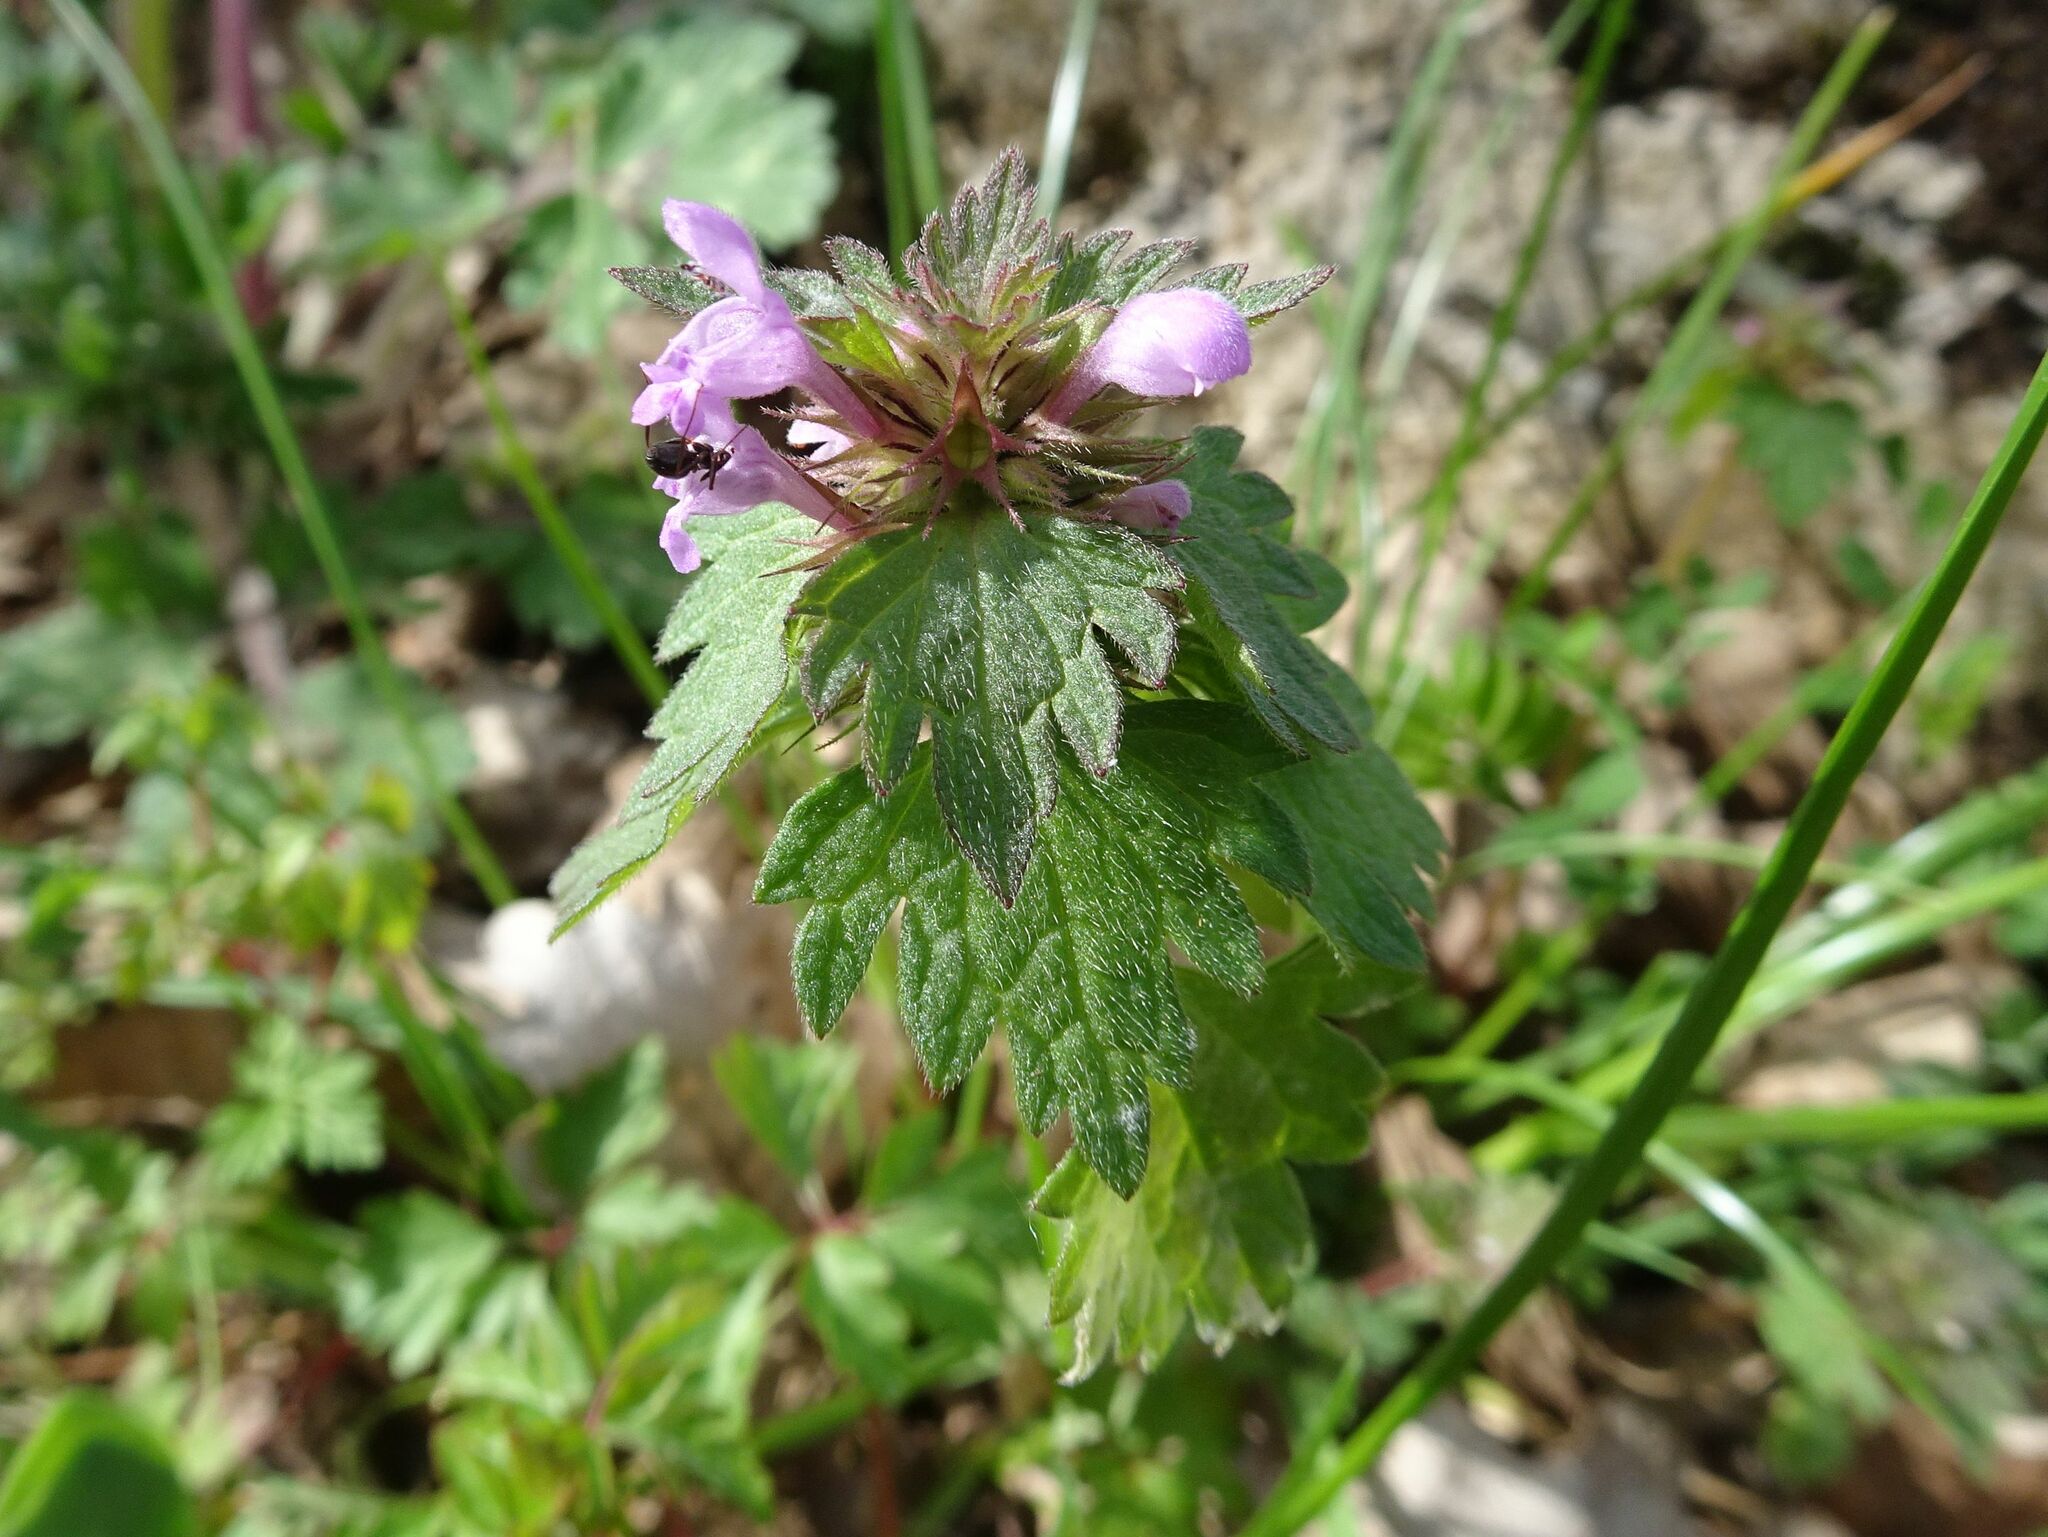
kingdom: Plantae
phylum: Tracheophyta
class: Magnoliopsida
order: Lamiales
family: Lamiaceae
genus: Lamium
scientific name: Lamium hybridum
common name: Cut-leaved dead-nettle
